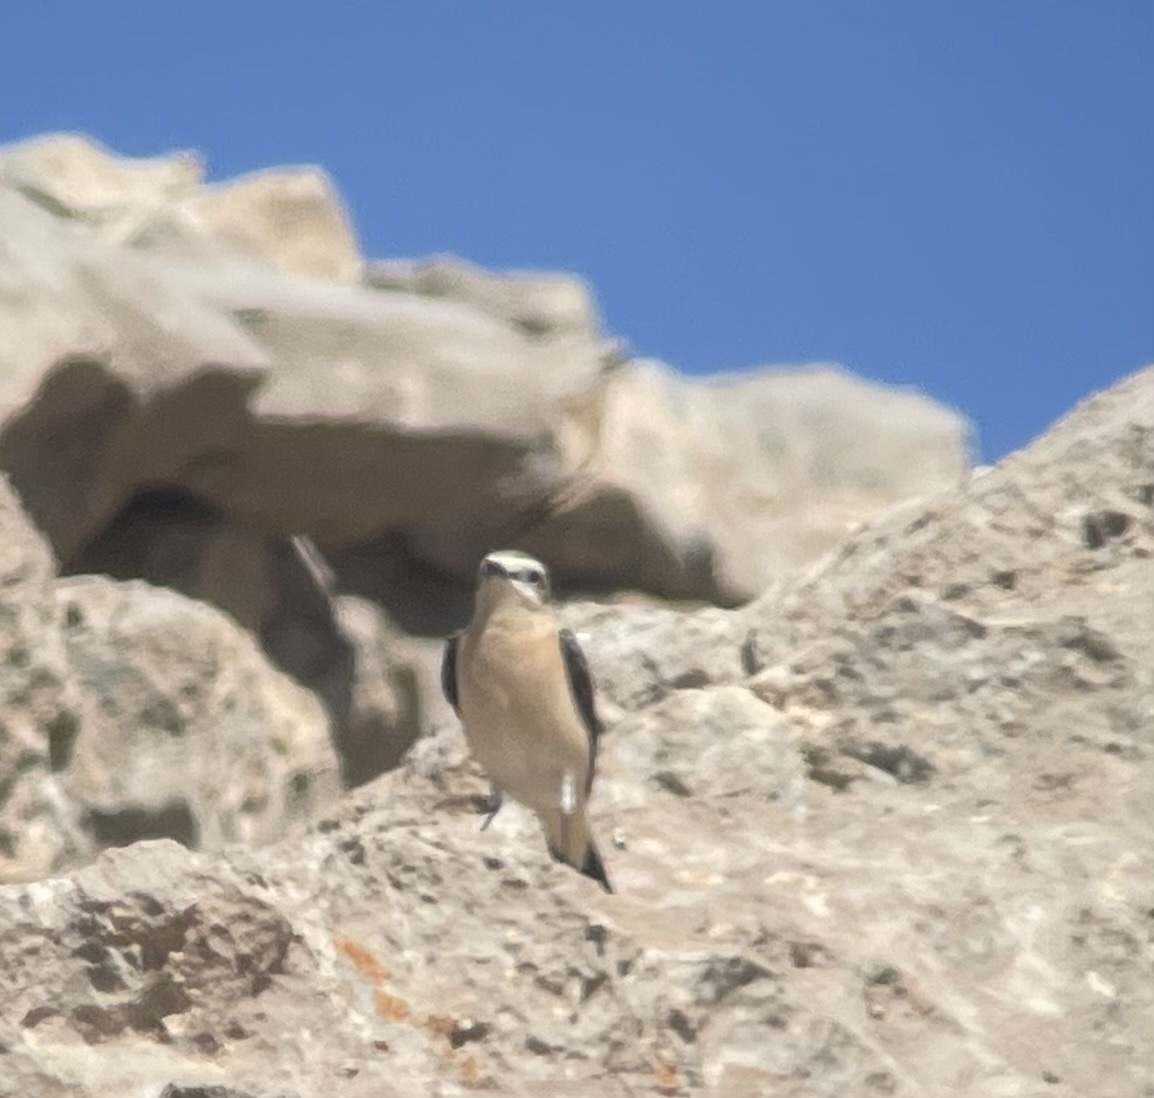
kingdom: Animalia
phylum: Chordata
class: Aves
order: Passeriformes
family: Muscicapidae
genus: Oenanthe
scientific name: Oenanthe oenanthe
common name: Northern wheatear
